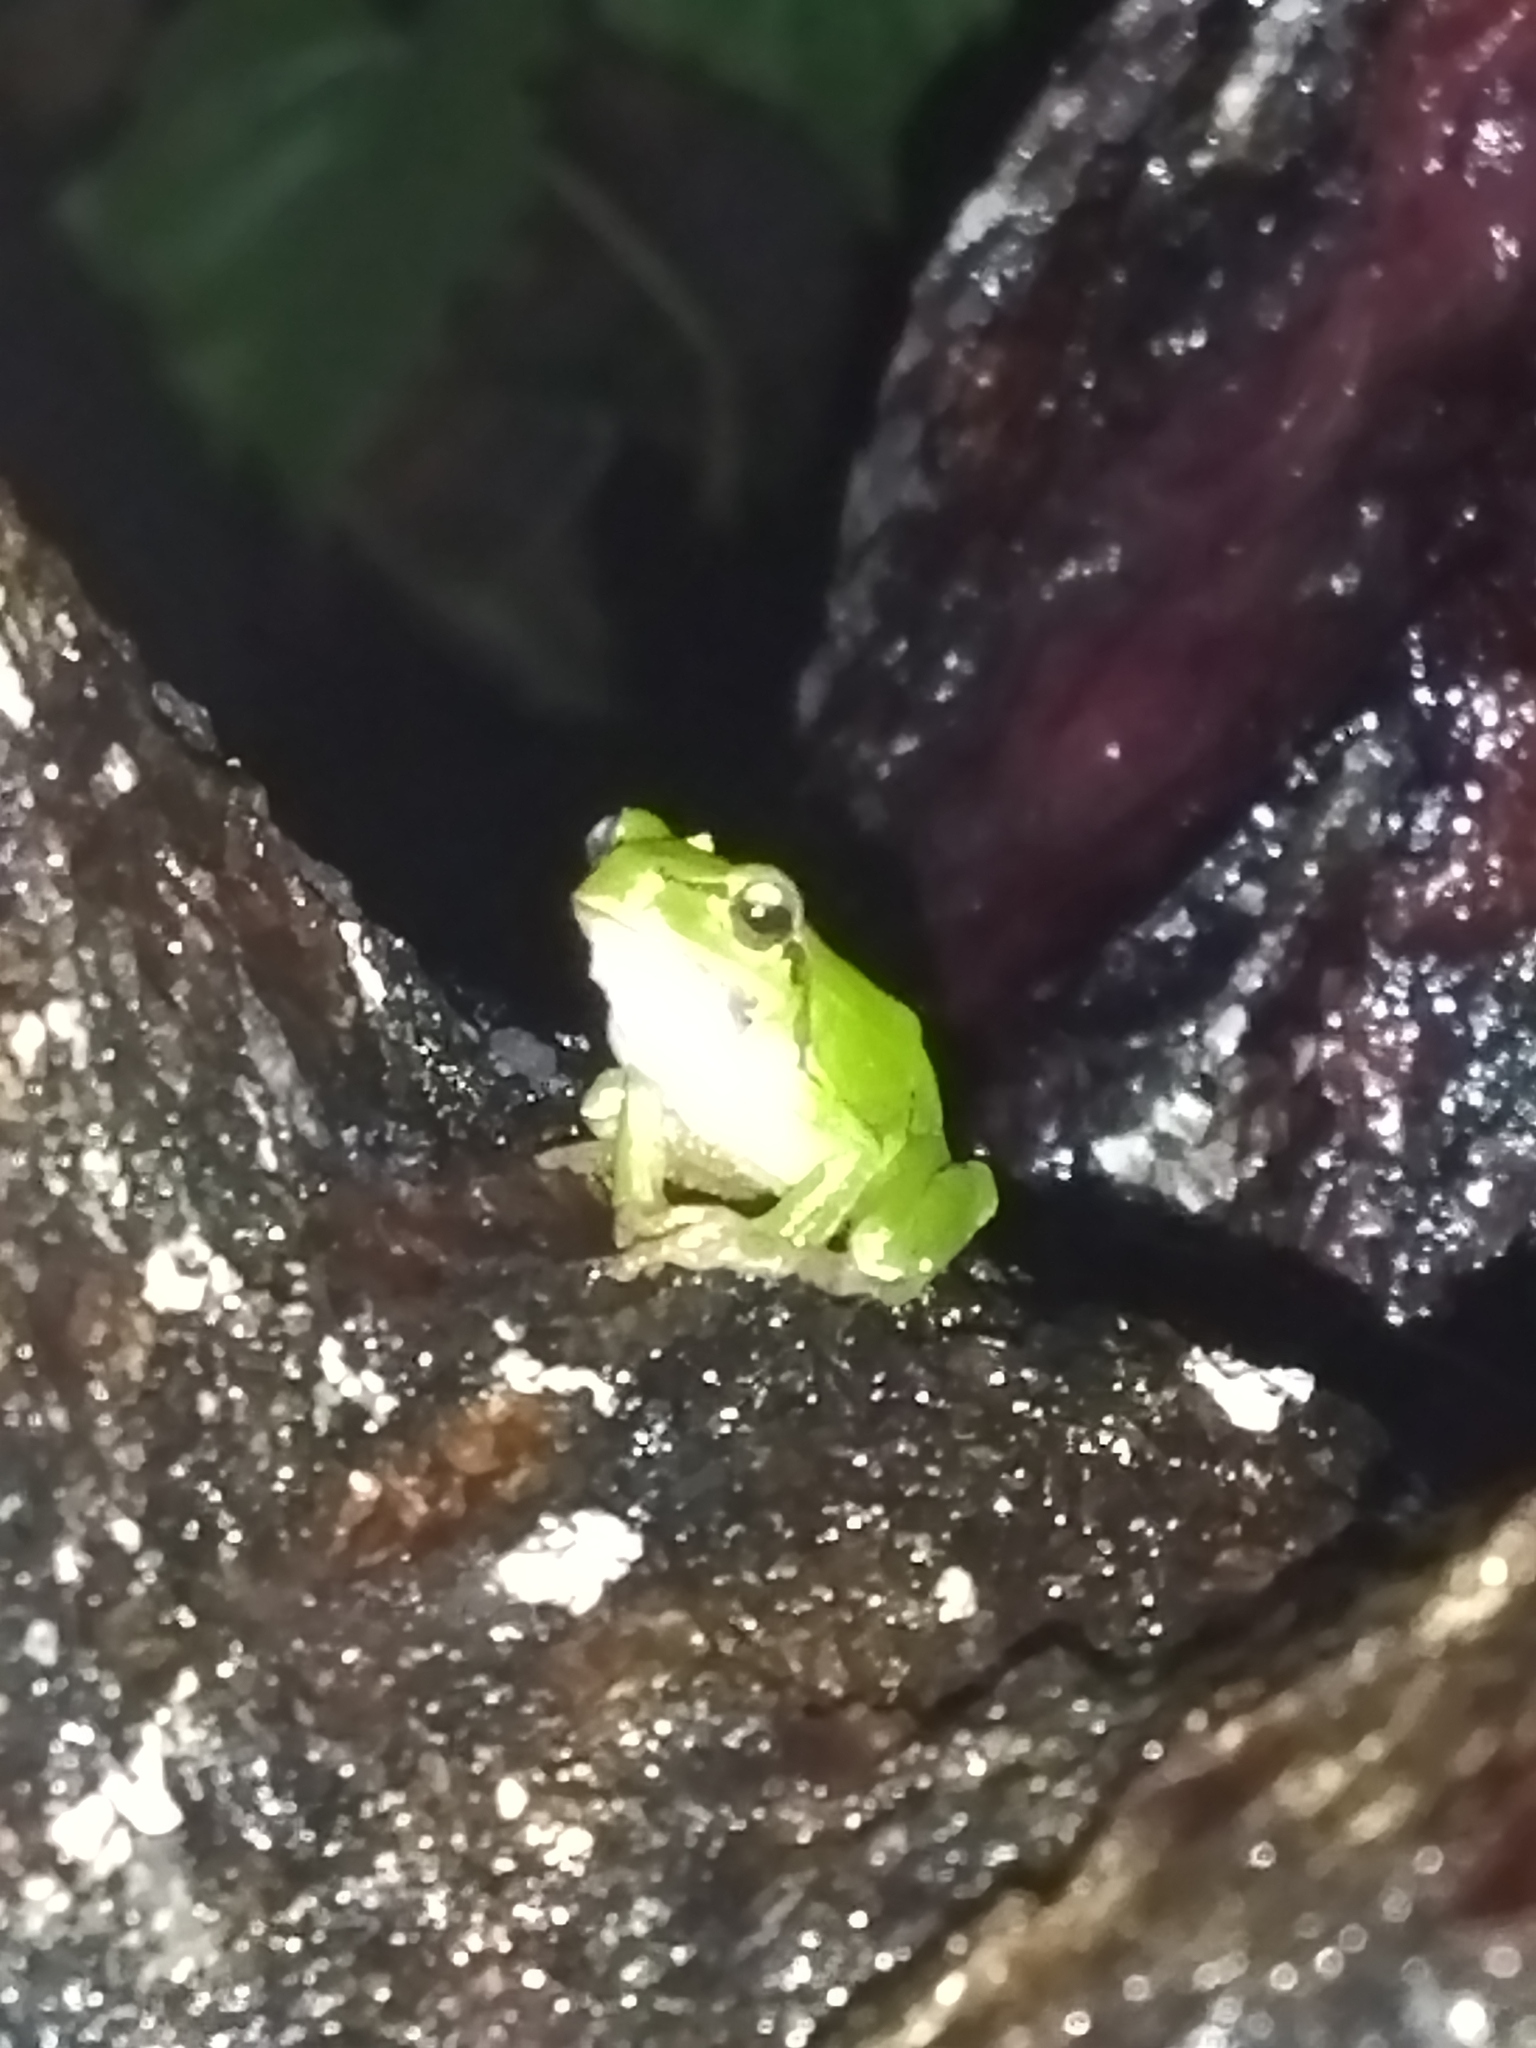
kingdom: Animalia
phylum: Chordata
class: Amphibia
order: Anura
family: Hylidae
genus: Hyla
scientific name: Hyla orientalis
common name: Caucasian treefrog
